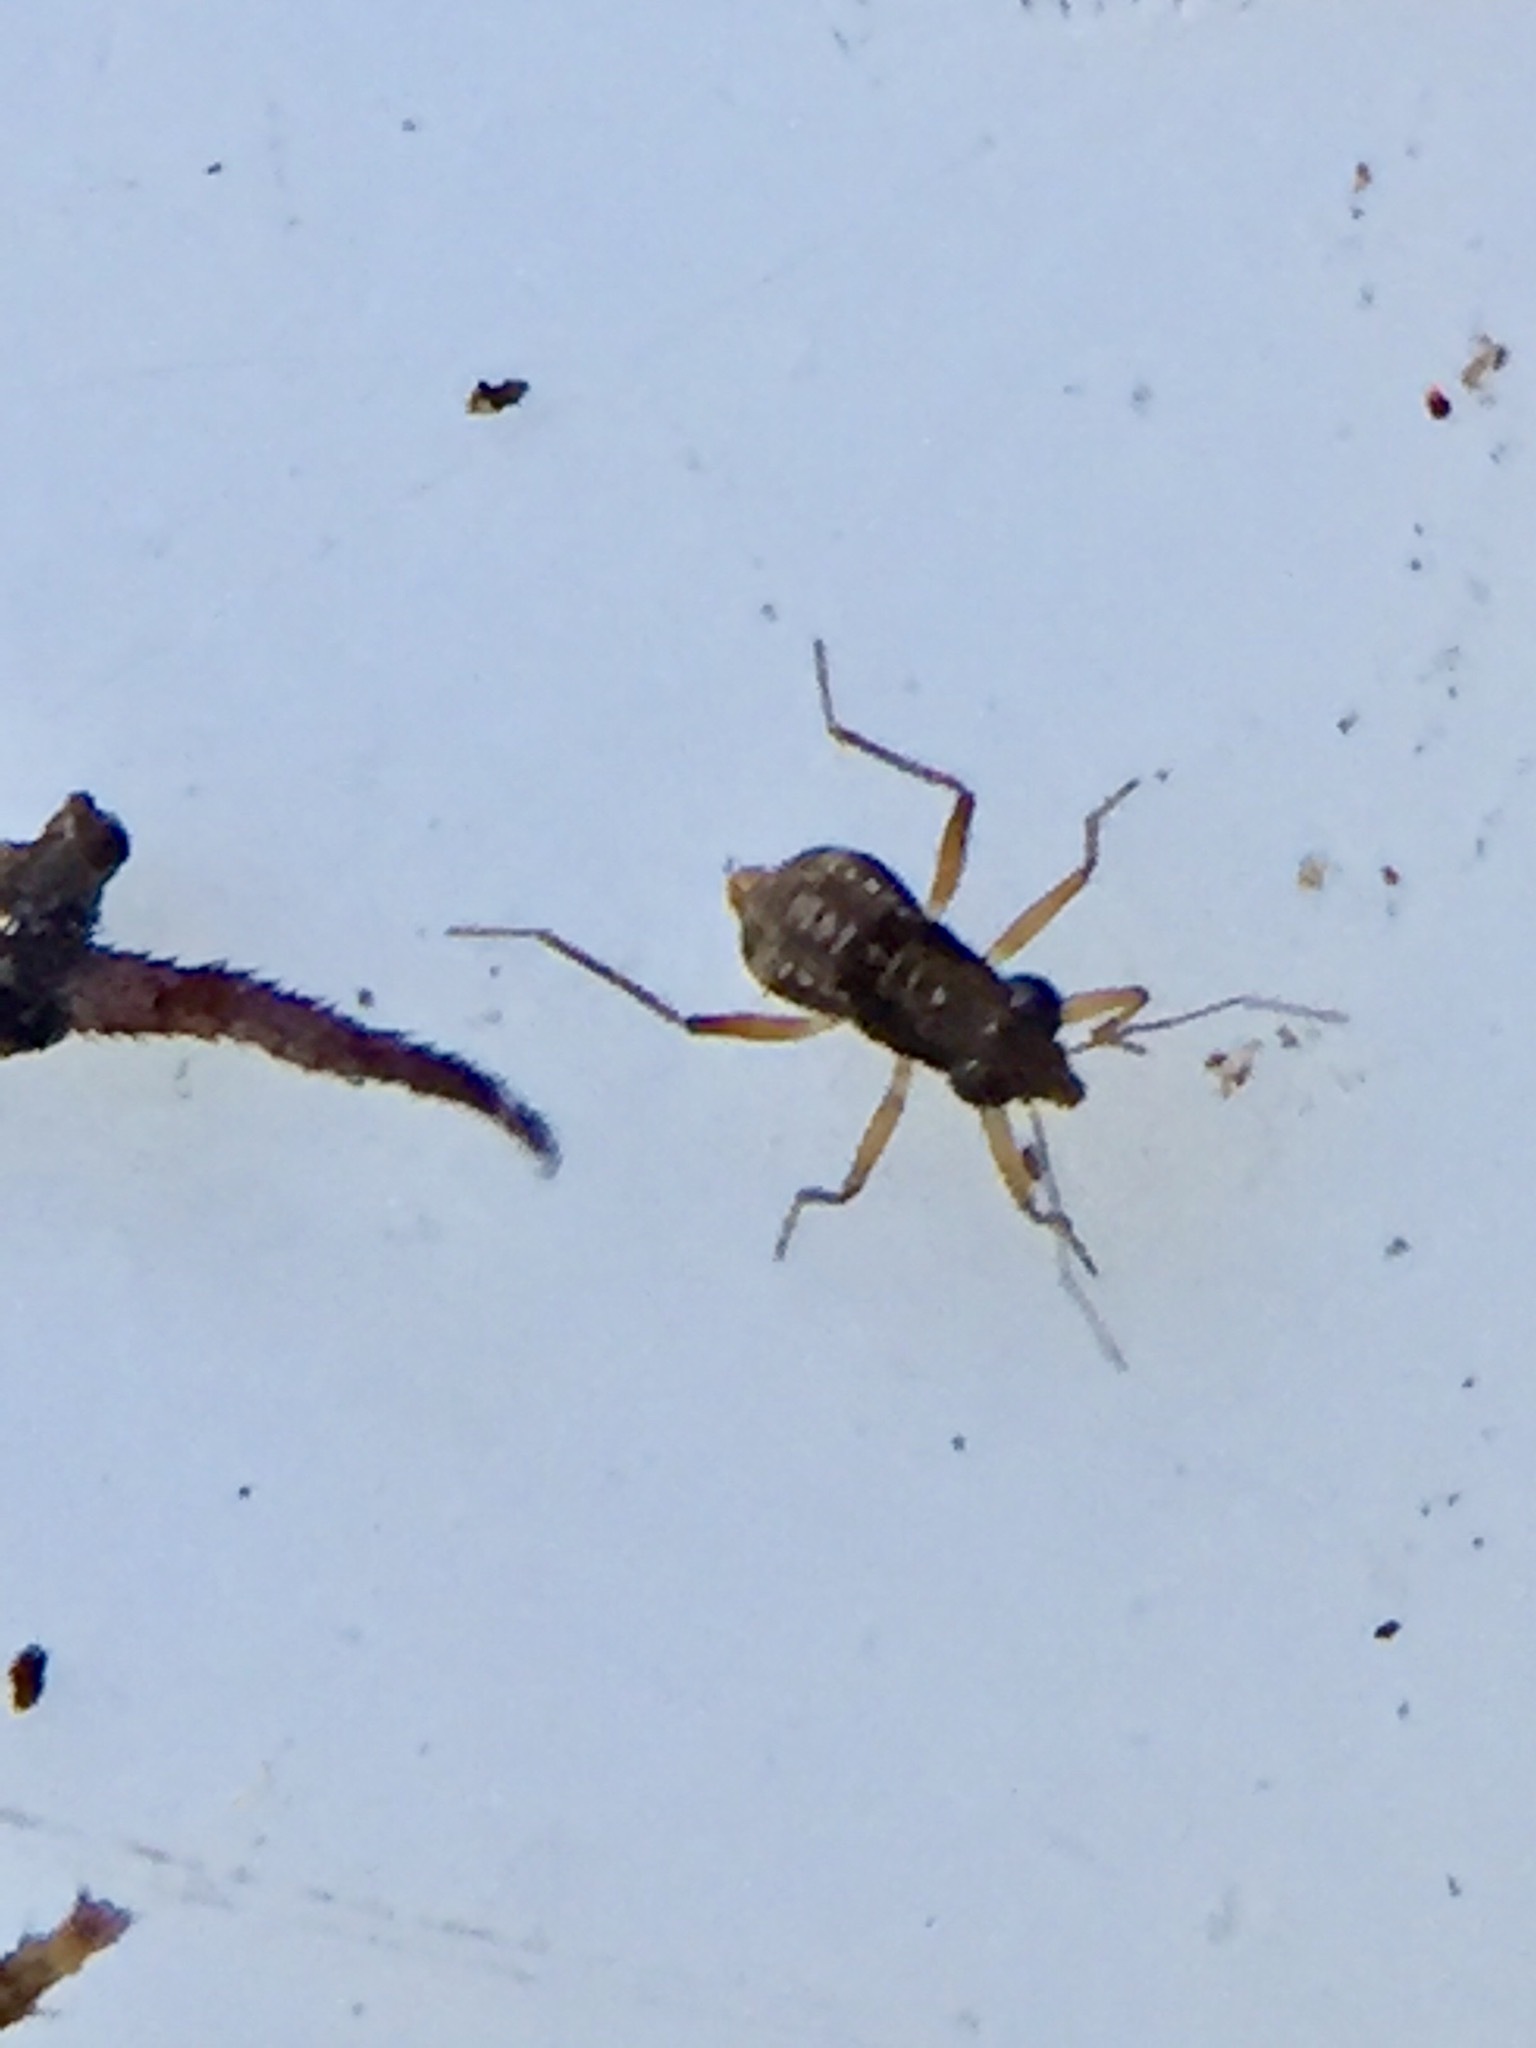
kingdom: Animalia
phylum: Arthropoda
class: Insecta
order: Hemiptera
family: Mesoveliidae
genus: Mniovelia
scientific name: Mniovelia kuscheli
